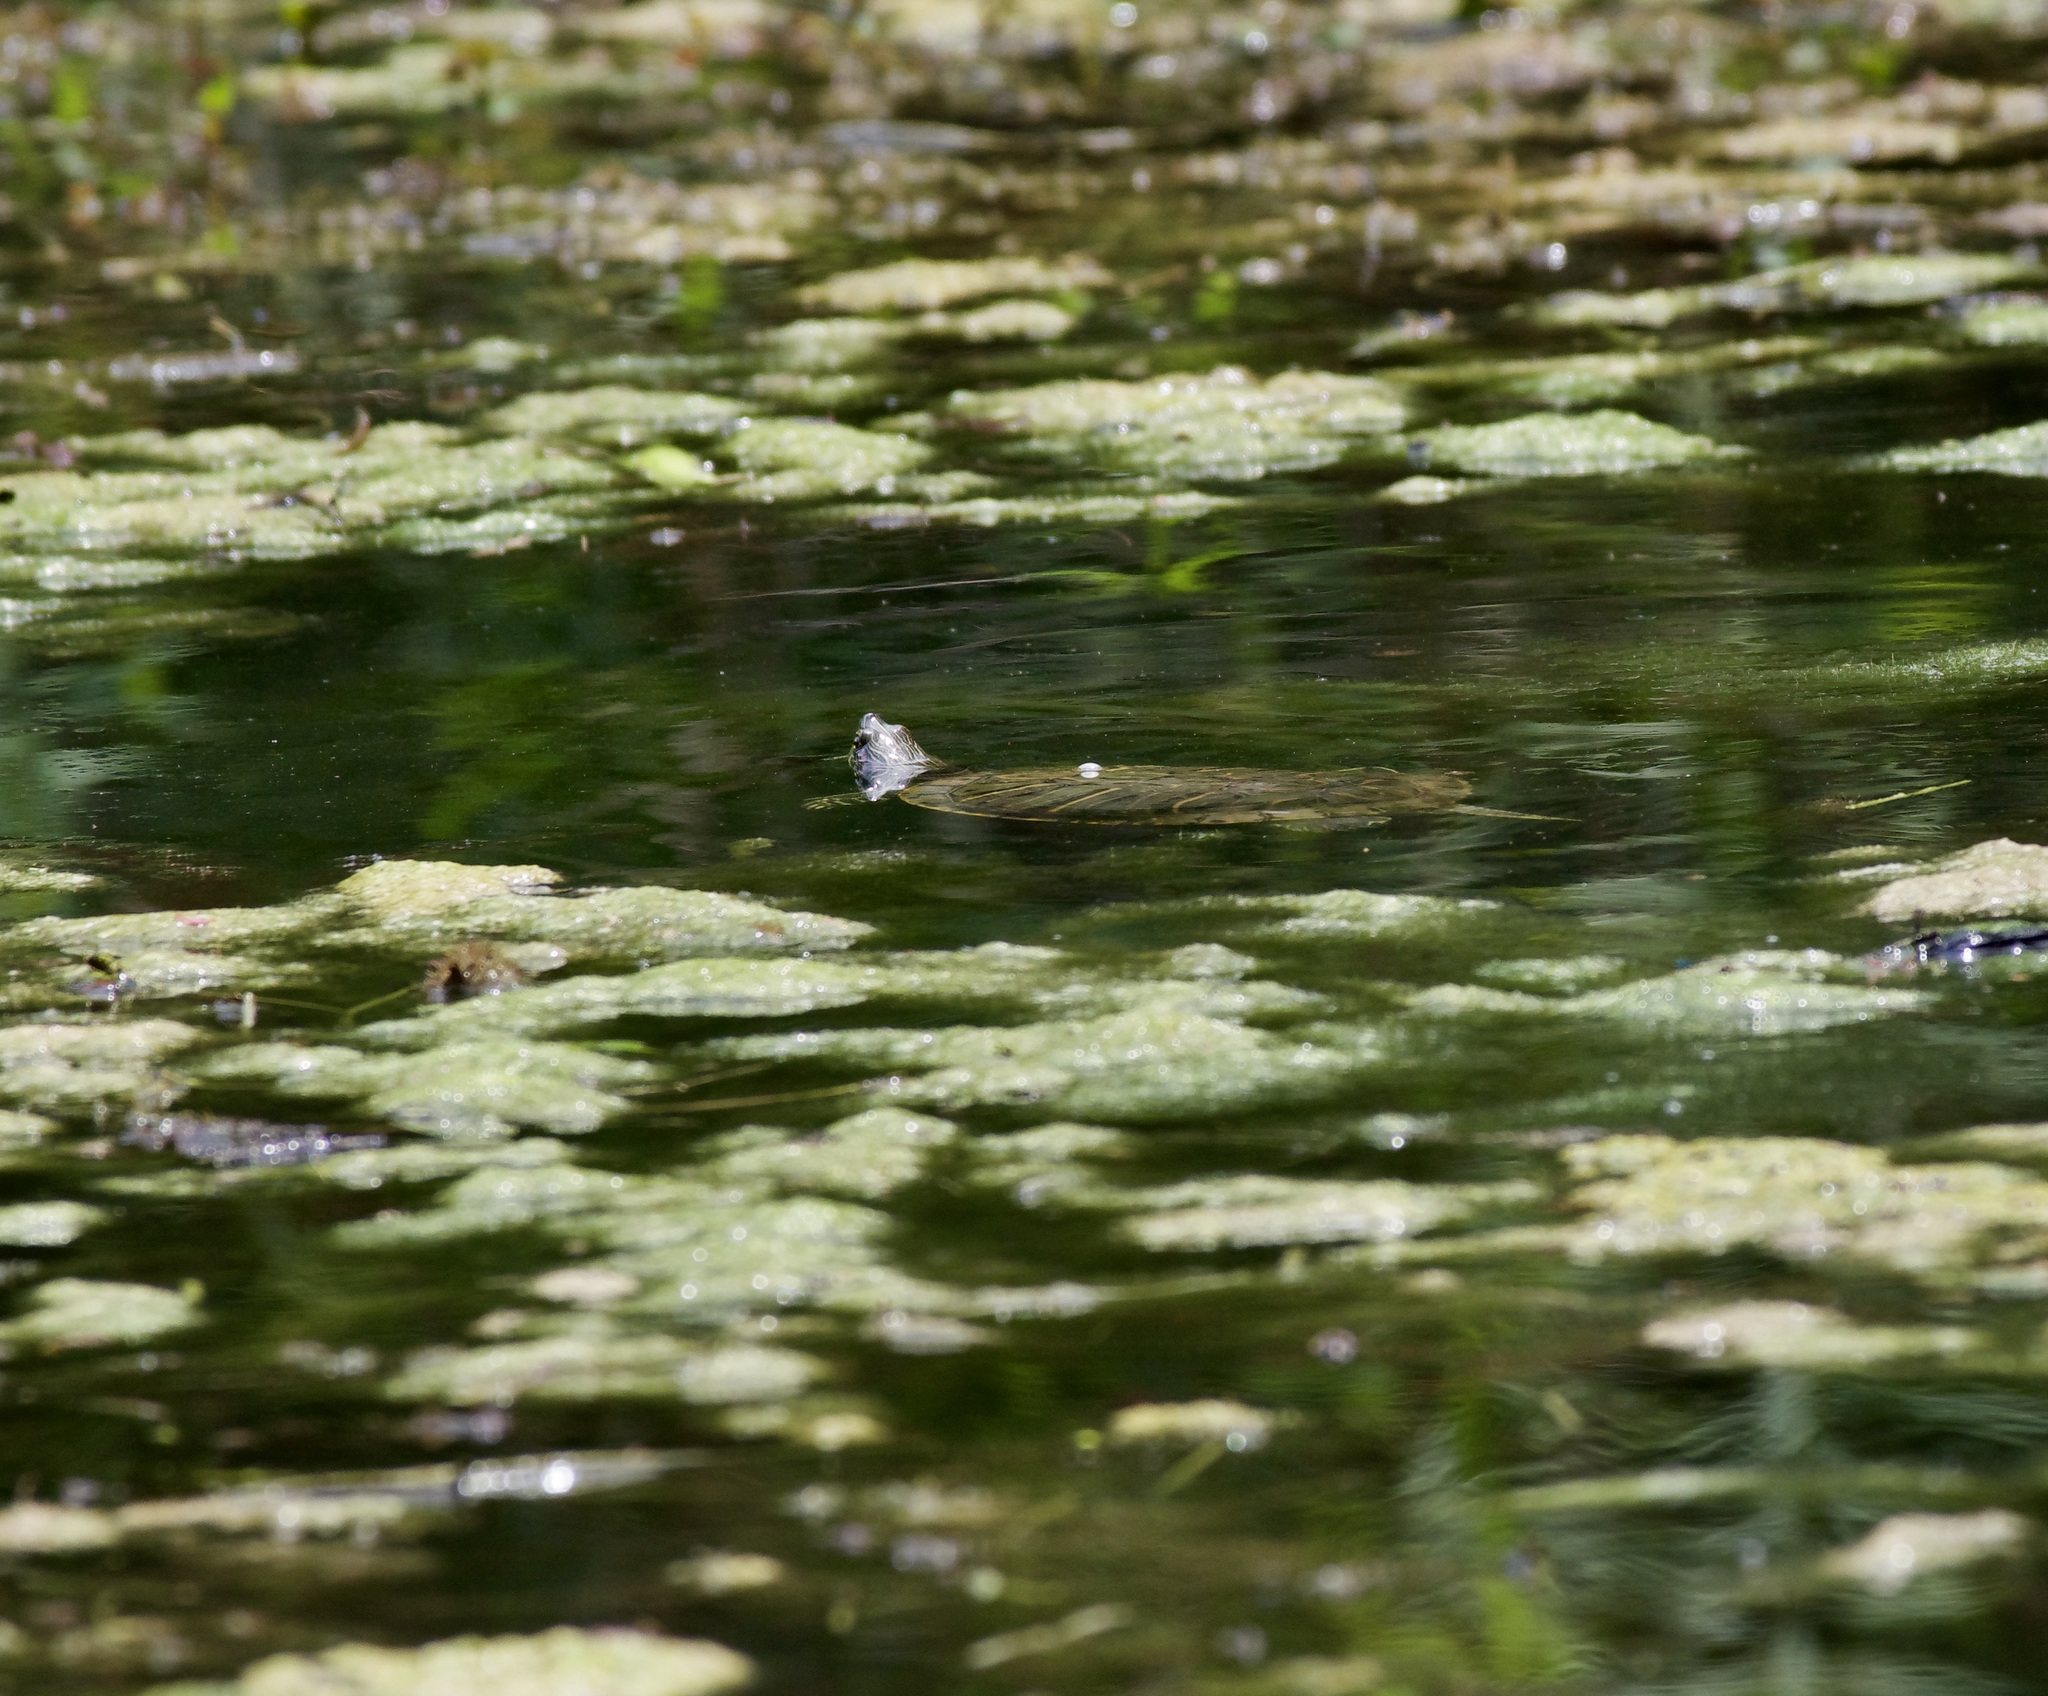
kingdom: Animalia
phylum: Chordata
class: Testudines
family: Emydidae
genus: Trachemys
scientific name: Trachemys scripta
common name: Slider
